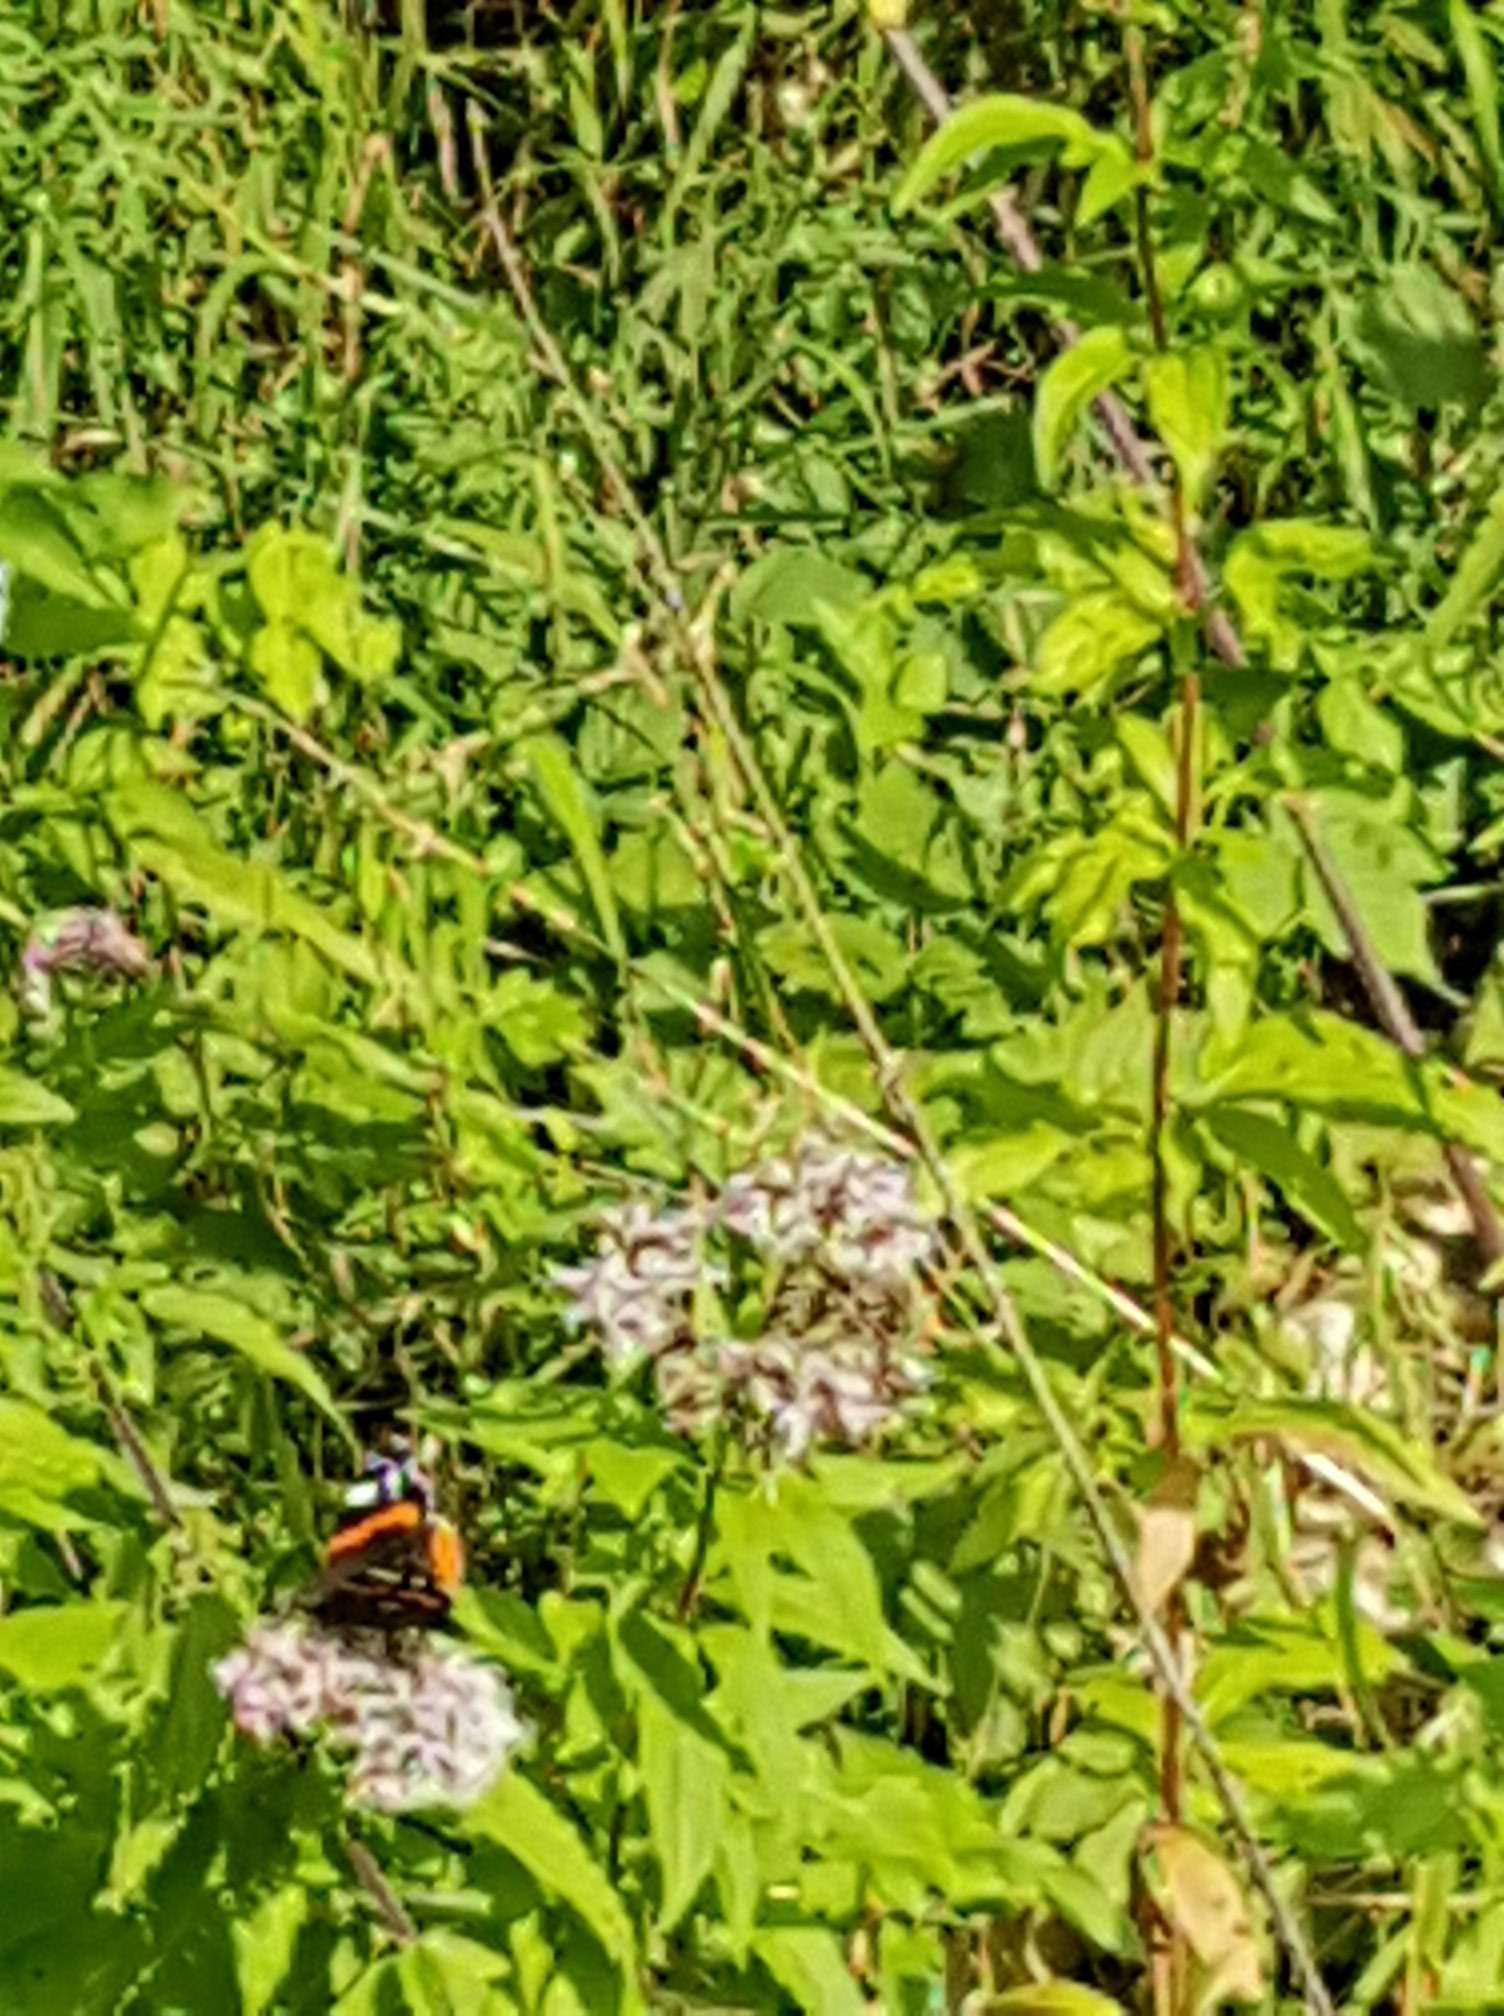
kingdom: Animalia
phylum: Arthropoda
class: Insecta
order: Lepidoptera
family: Nymphalidae
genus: Vanessa
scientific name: Vanessa atalanta
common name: Red admiral
